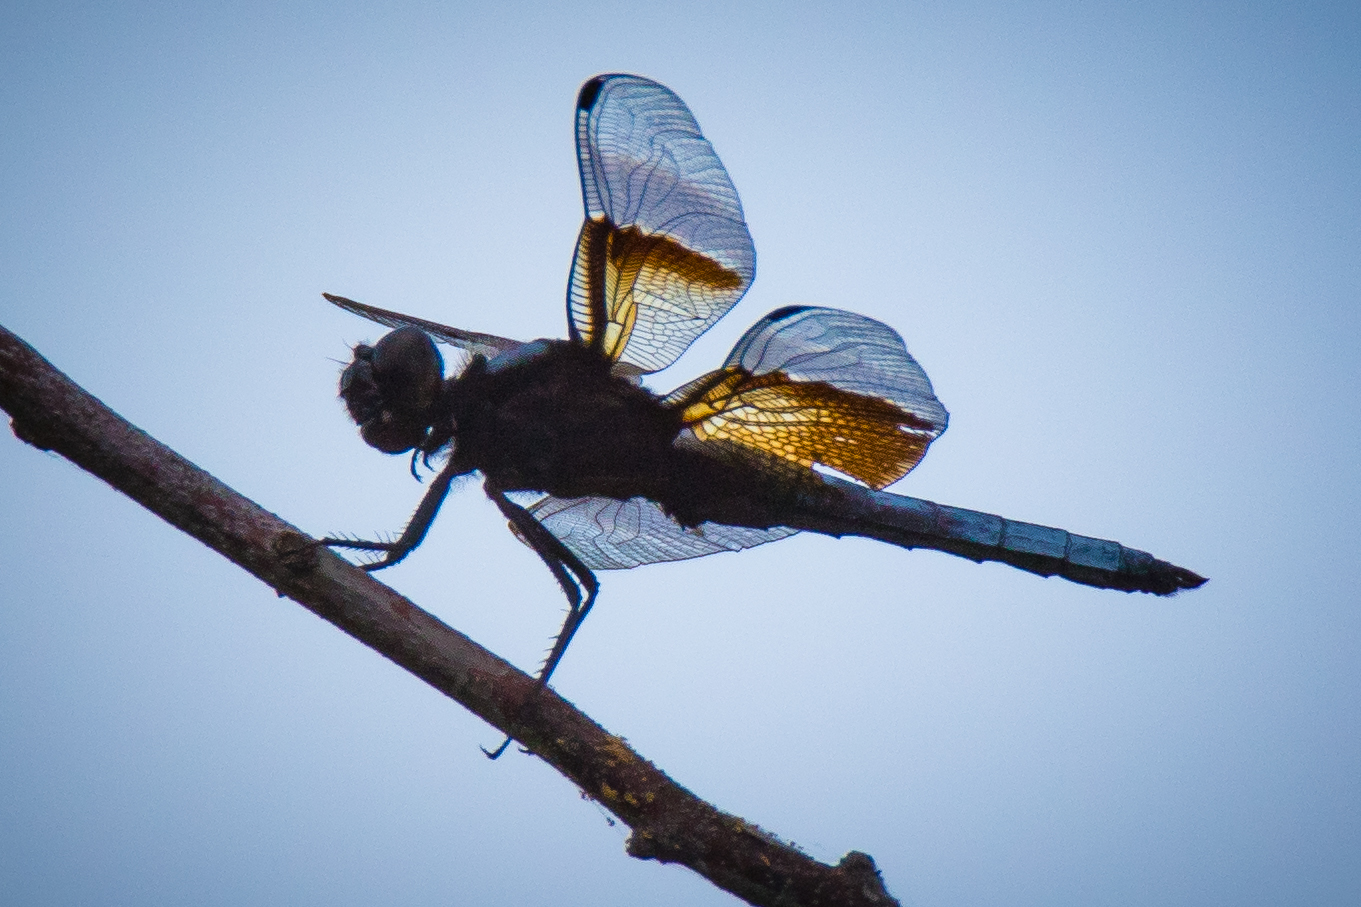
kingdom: Animalia
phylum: Arthropoda
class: Insecta
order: Odonata
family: Libellulidae
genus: Libellula
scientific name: Libellula luctuosa
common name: Widow skimmer
